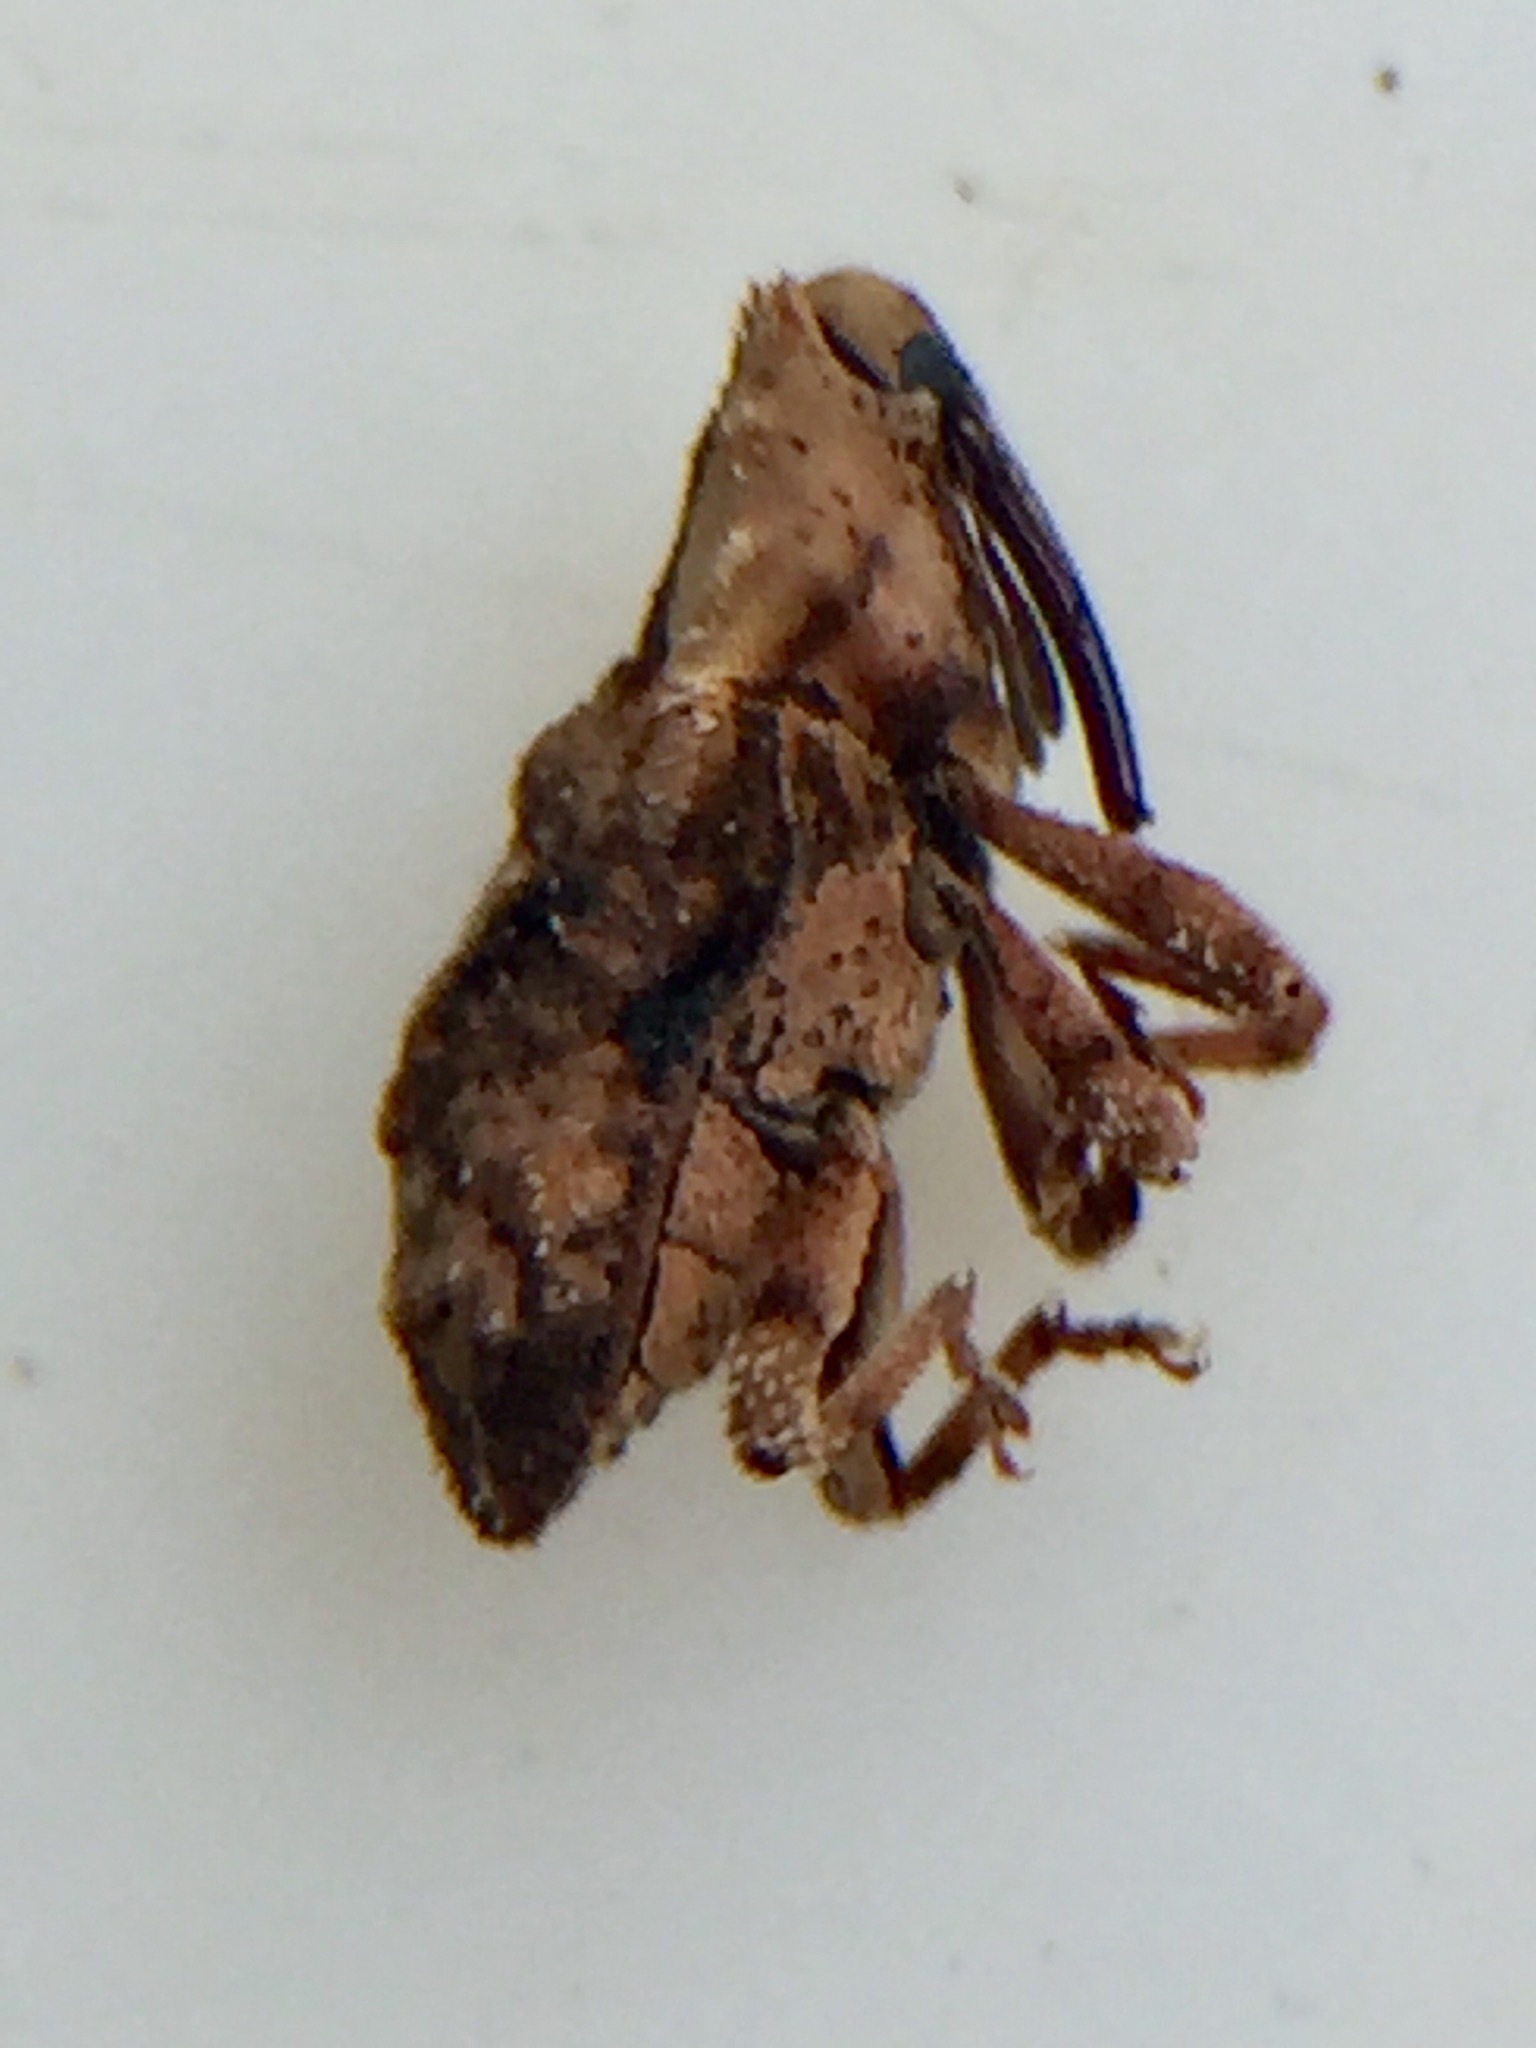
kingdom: Animalia
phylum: Arthropoda
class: Insecta
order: Coleoptera
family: Curculionidae
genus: Mecistostylus
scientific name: Mecistostylus douei
